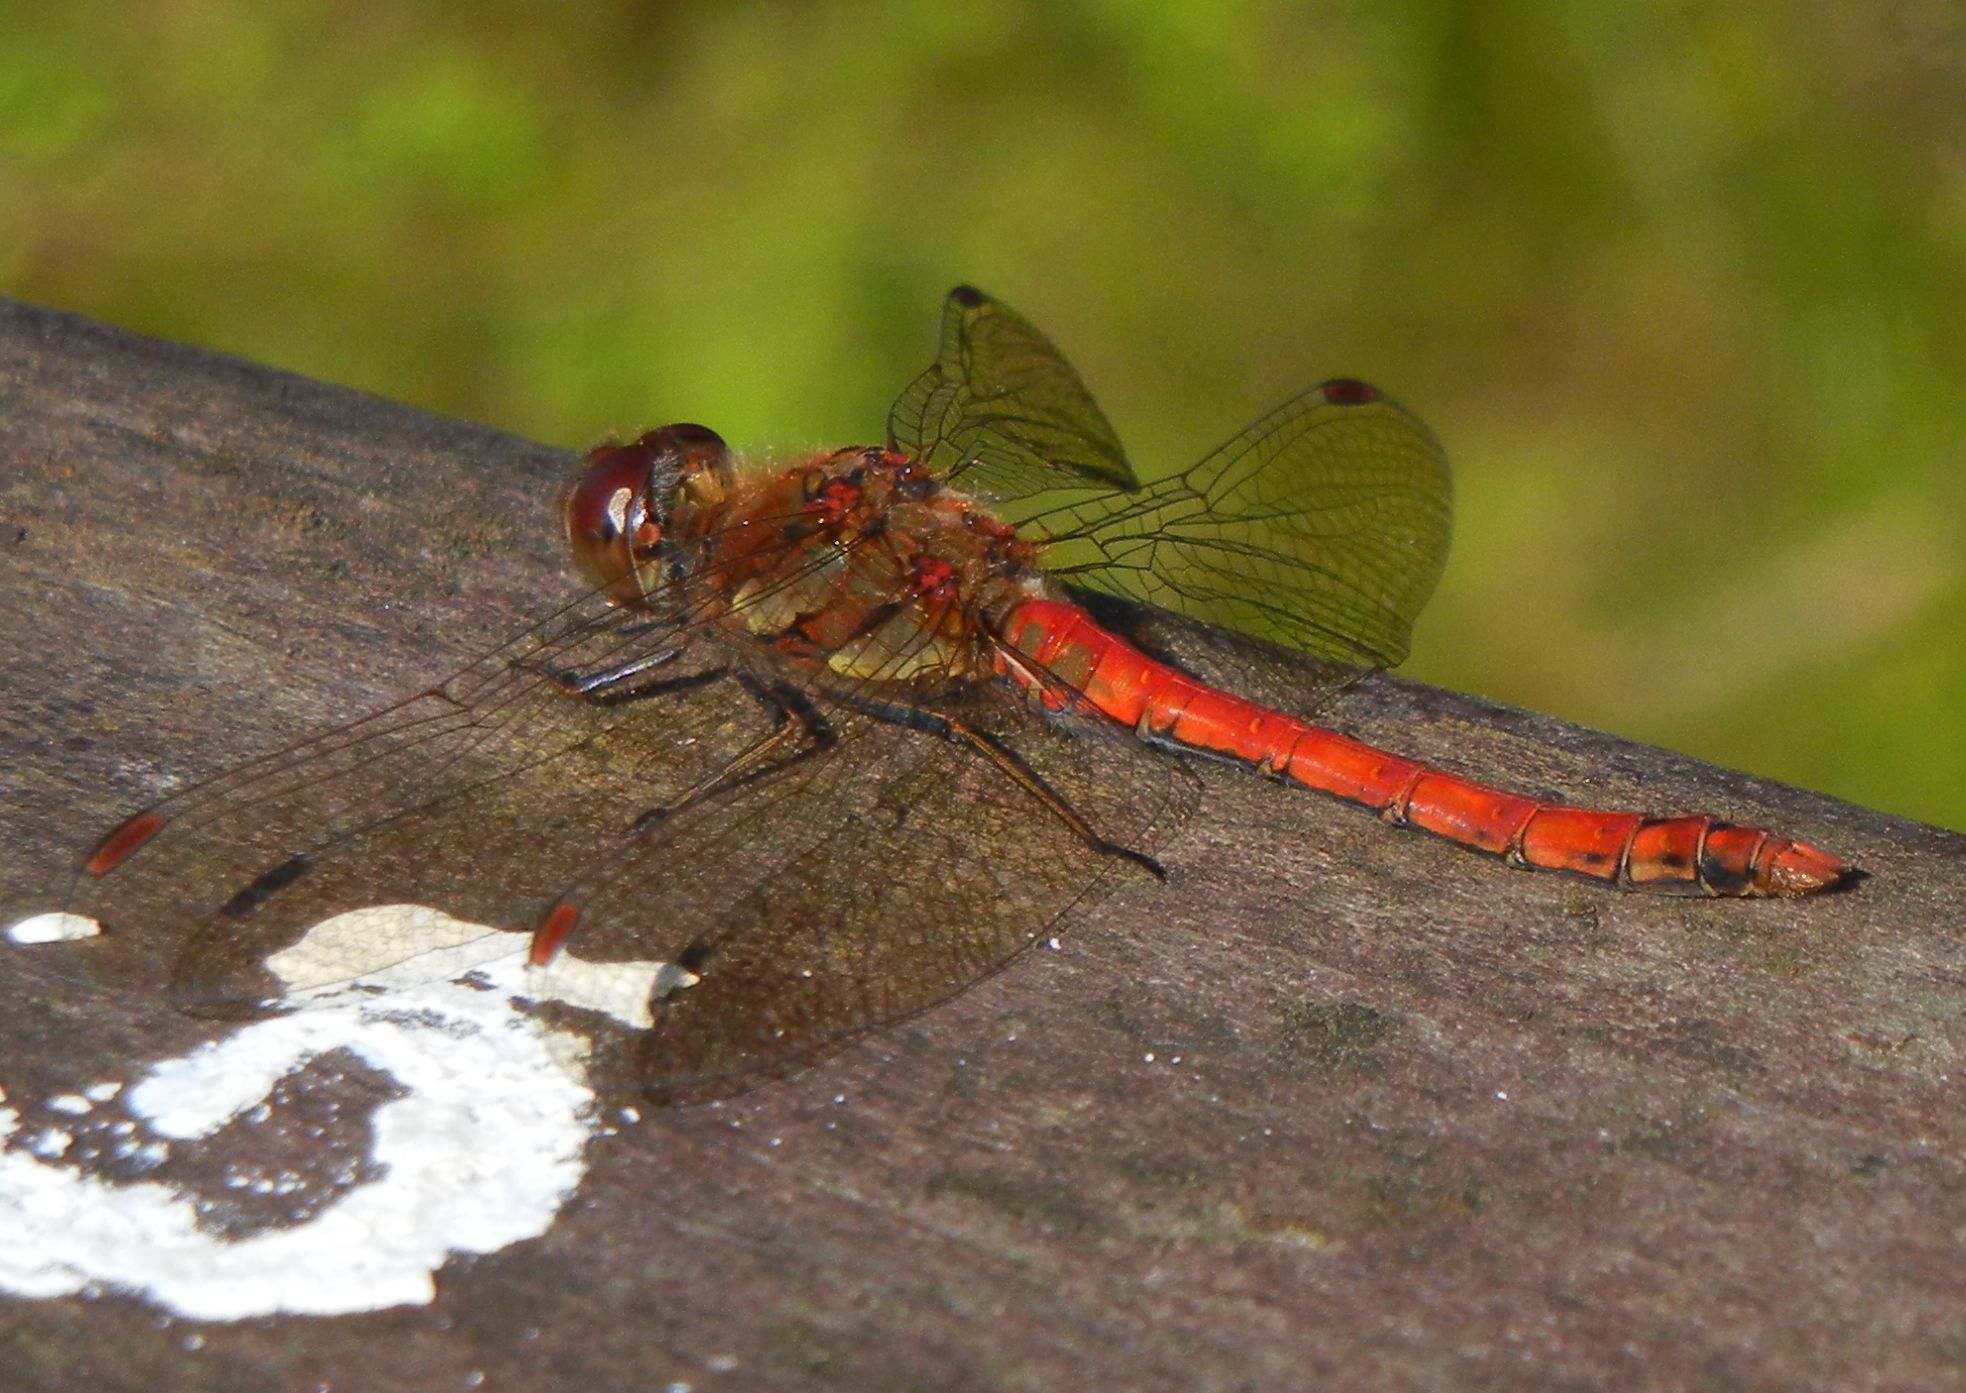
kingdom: Animalia
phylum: Arthropoda
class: Insecta
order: Odonata
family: Libellulidae
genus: Sympetrum
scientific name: Sympetrum striolatum
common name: Common darter
